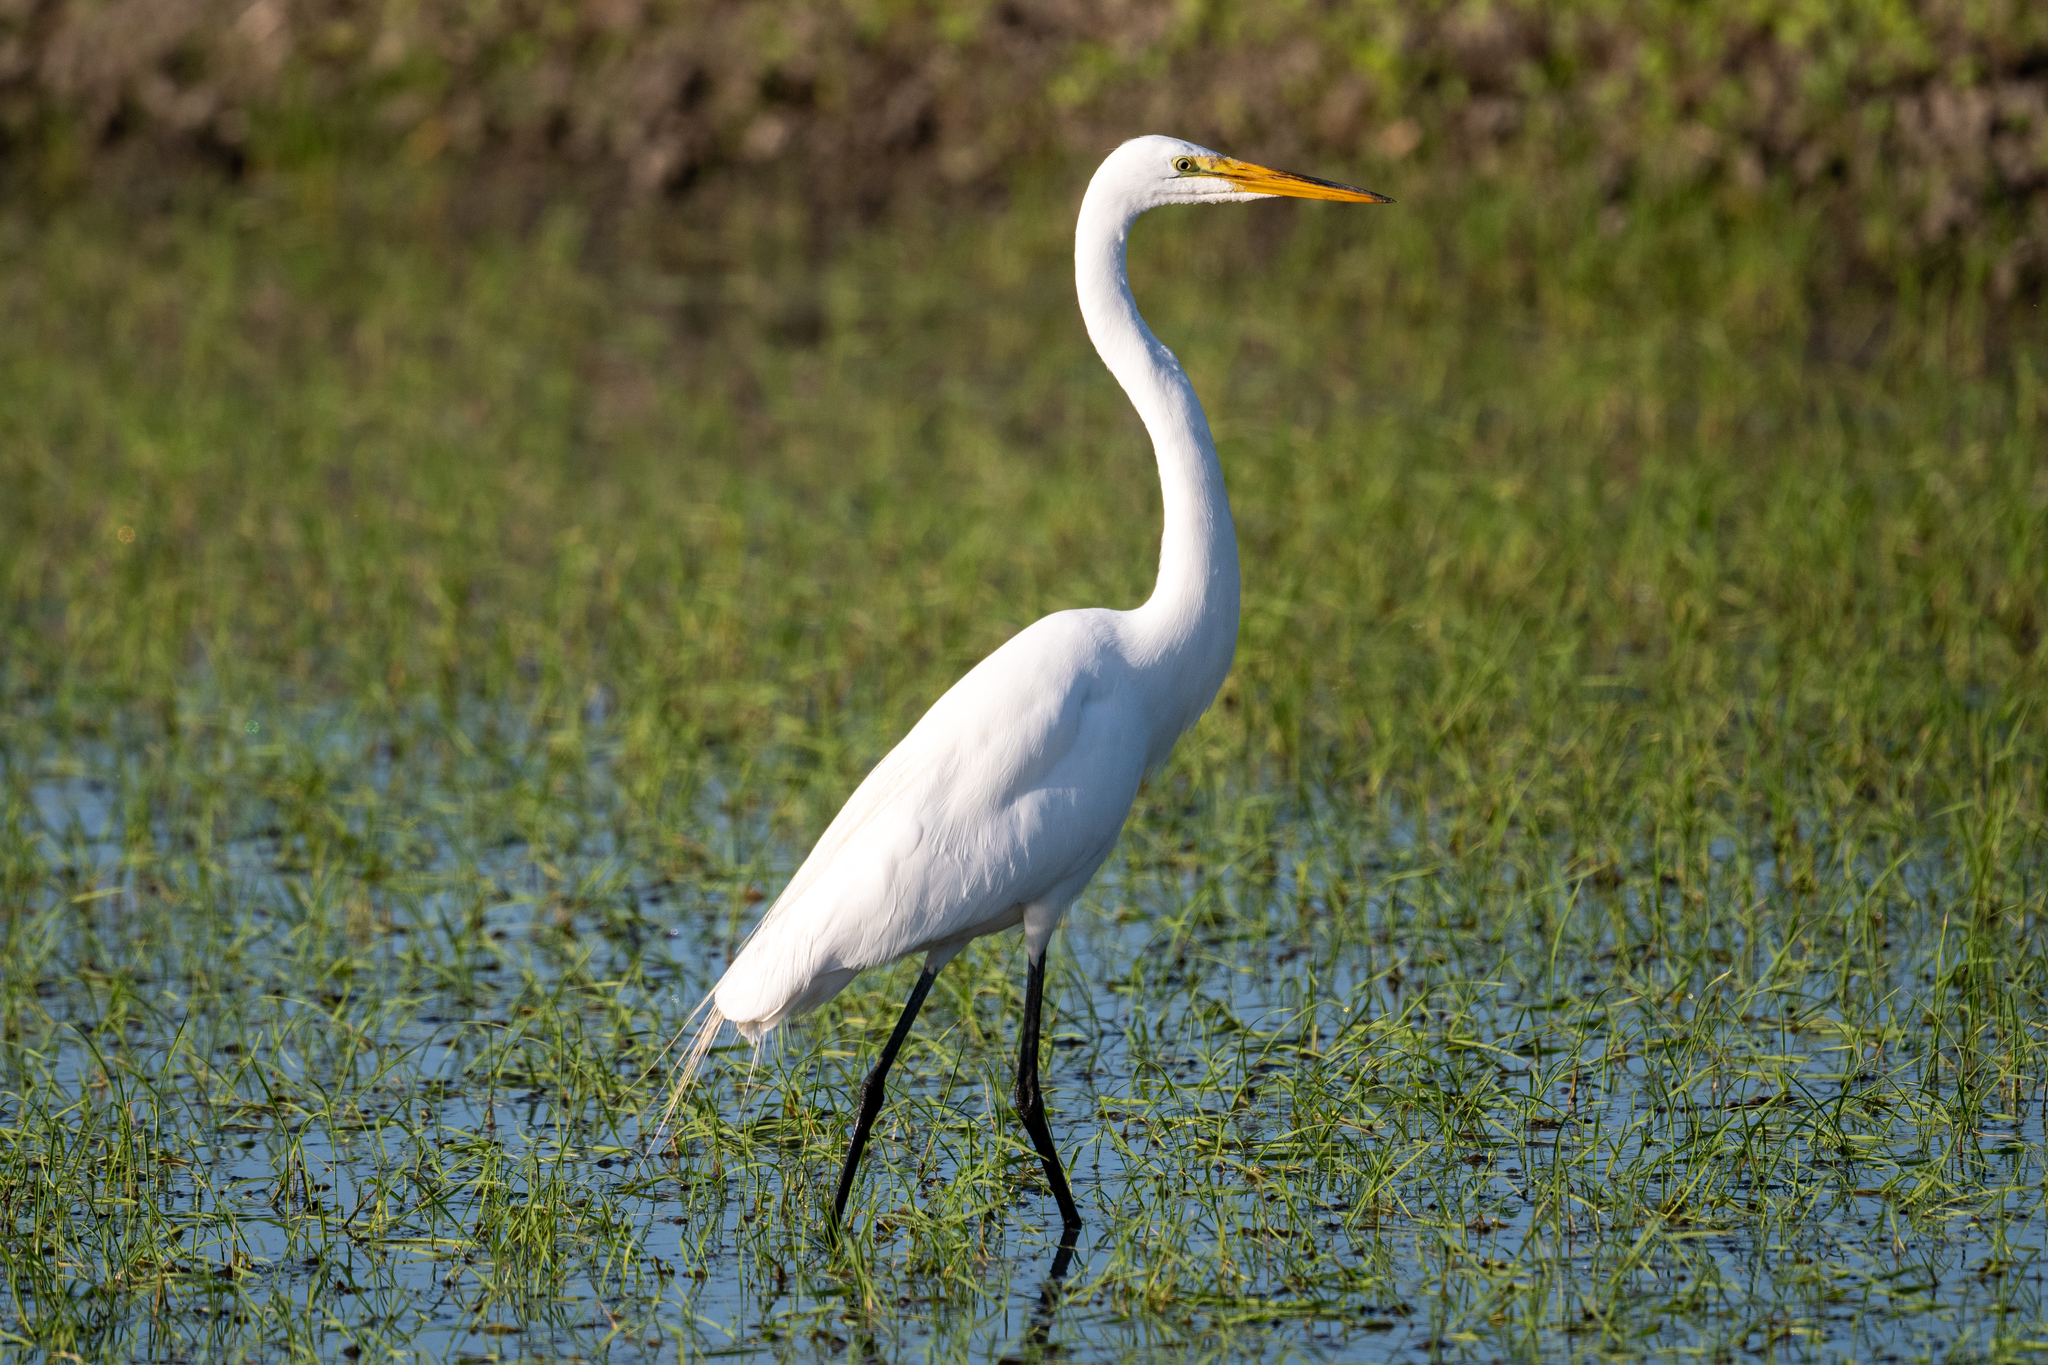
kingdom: Animalia
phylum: Chordata
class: Aves
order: Pelecaniformes
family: Ardeidae
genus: Ardea
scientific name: Ardea alba
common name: Great egret
